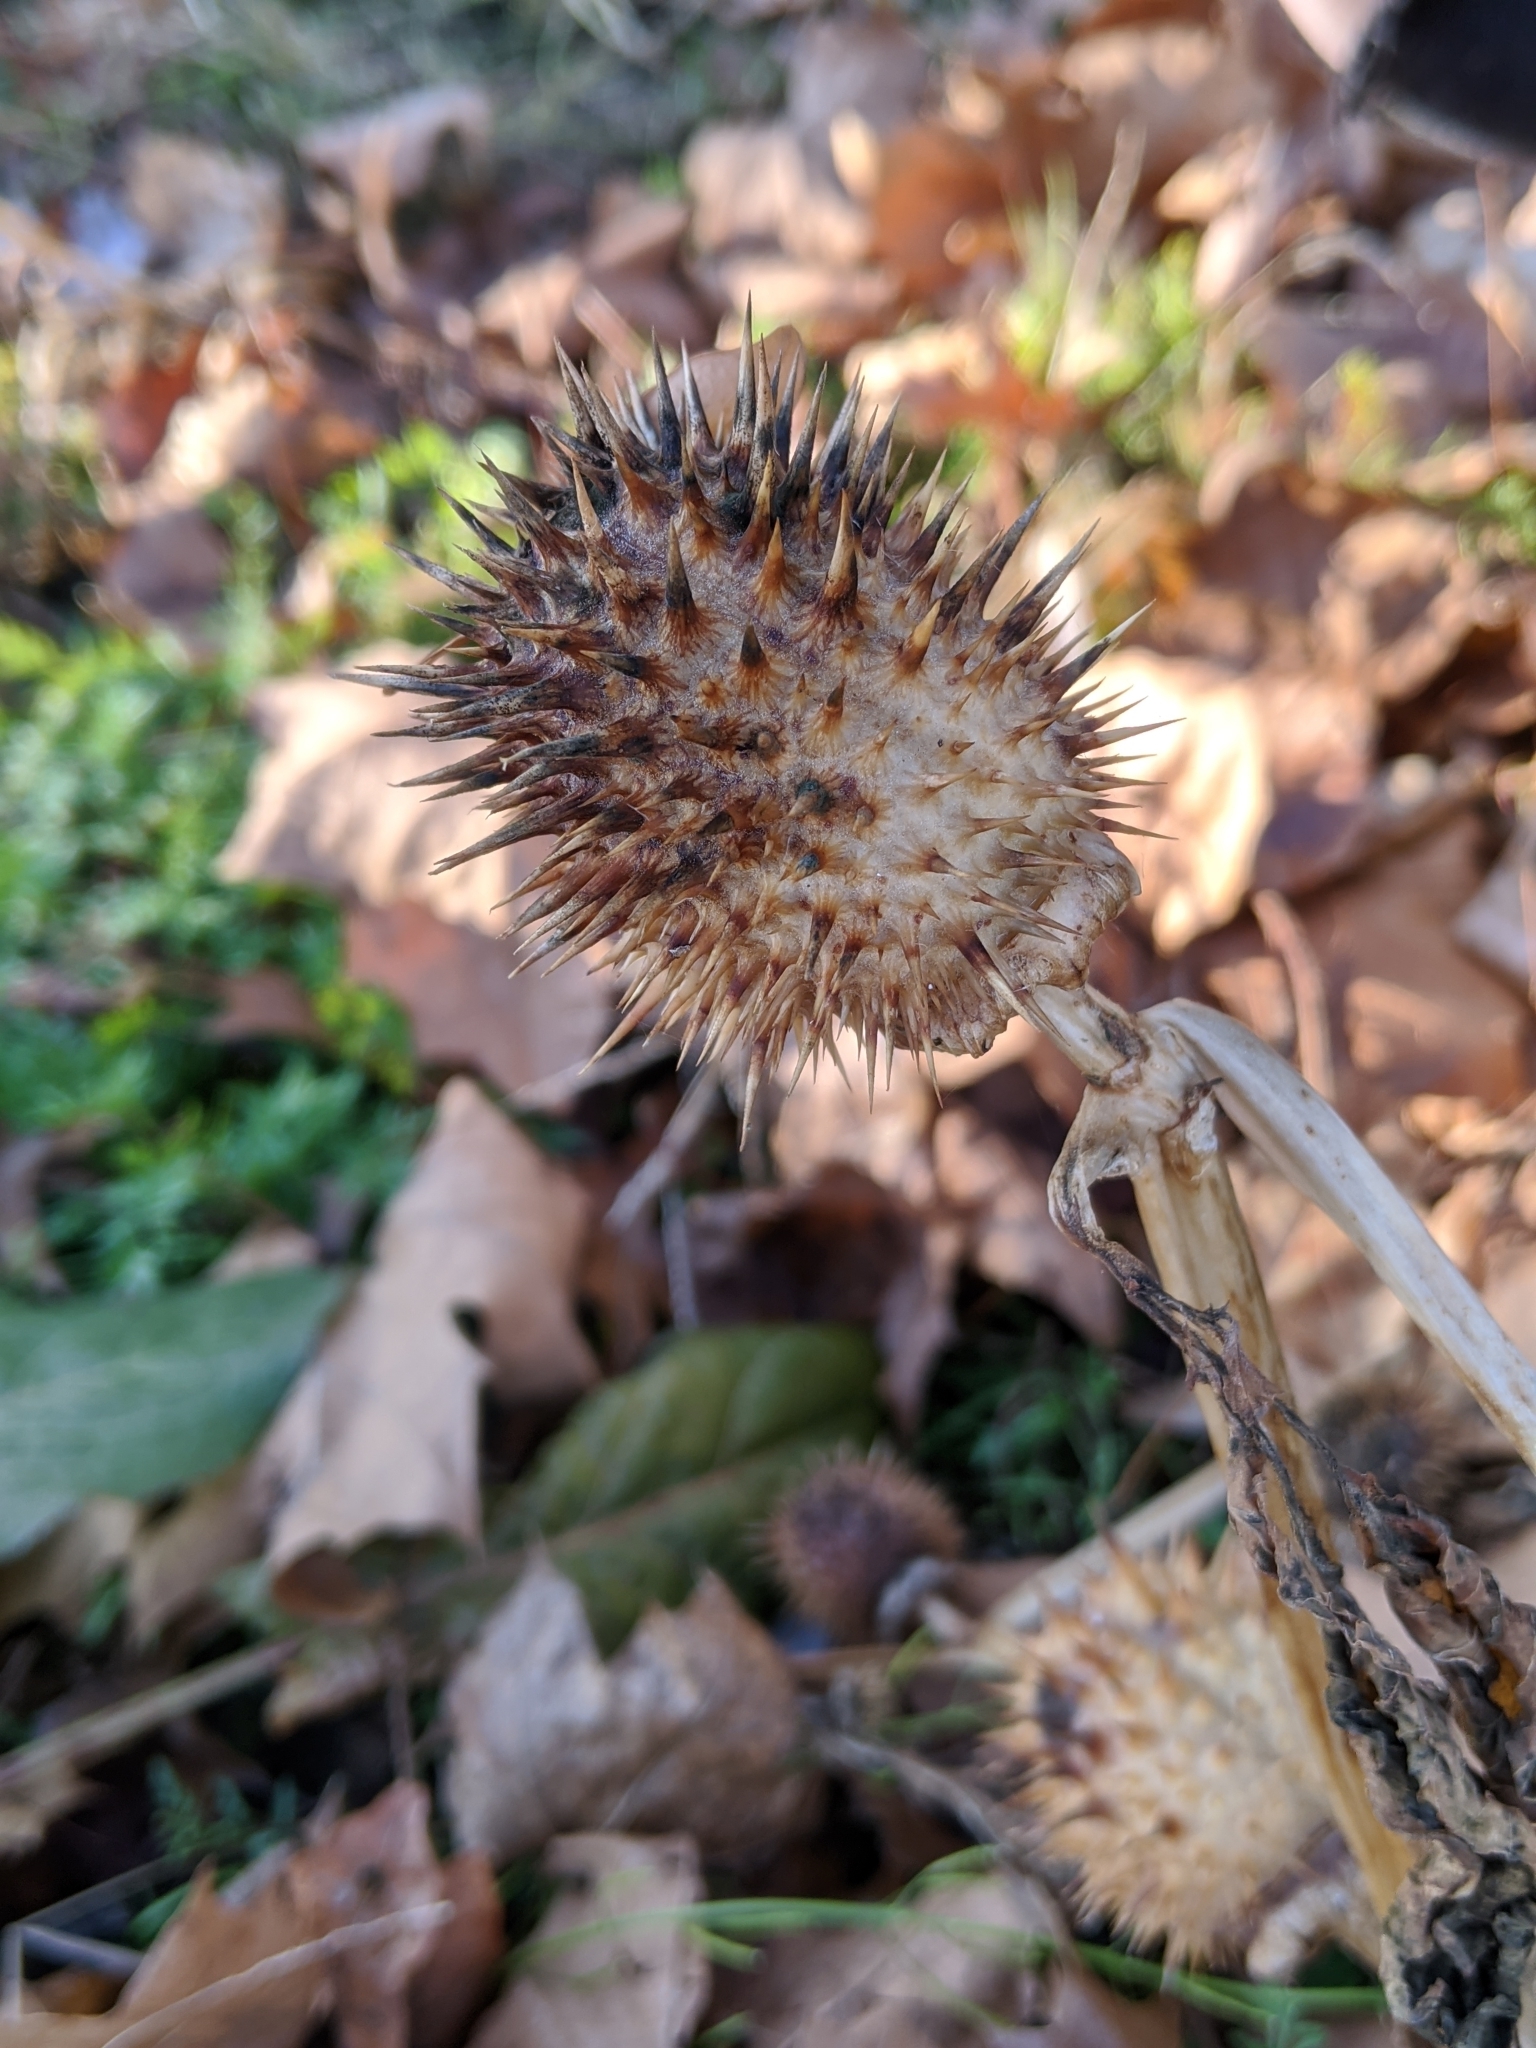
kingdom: Plantae
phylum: Tracheophyta
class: Magnoliopsida
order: Solanales
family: Solanaceae
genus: Datura
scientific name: Datura stramonium
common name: Thorn-apple
